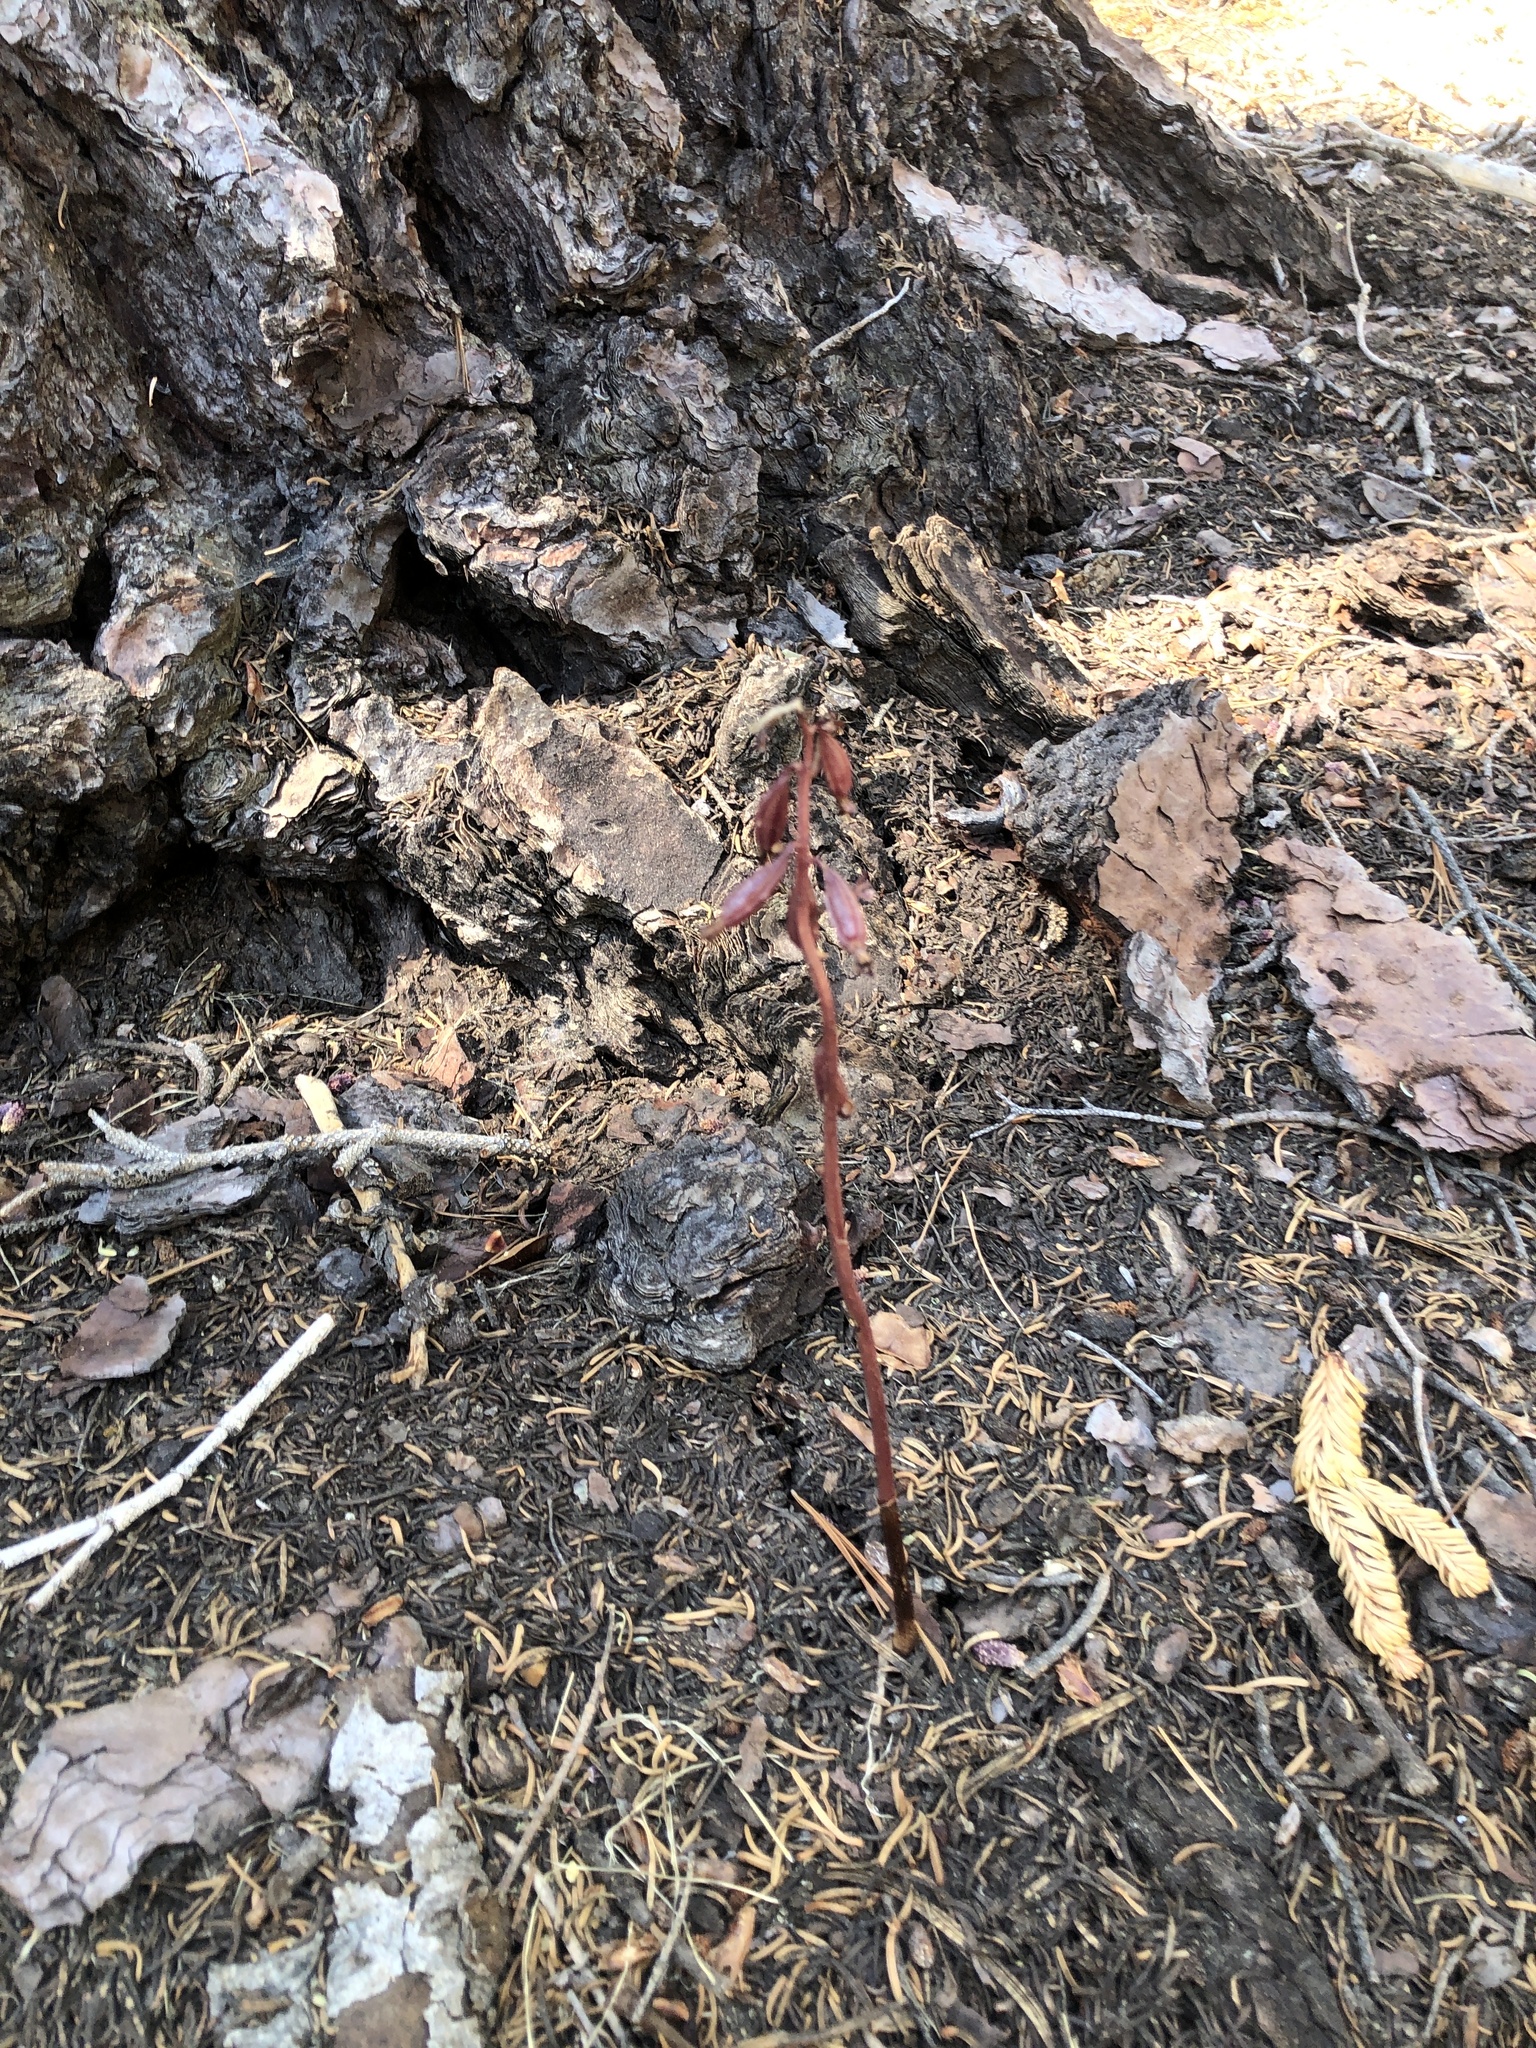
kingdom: Plantae
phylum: Tracheophyta
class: Liliopsida
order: Asparagales
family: Orchidaceae
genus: Corallorhiza
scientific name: Corallorhiza maculata
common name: Spotted coralroot
